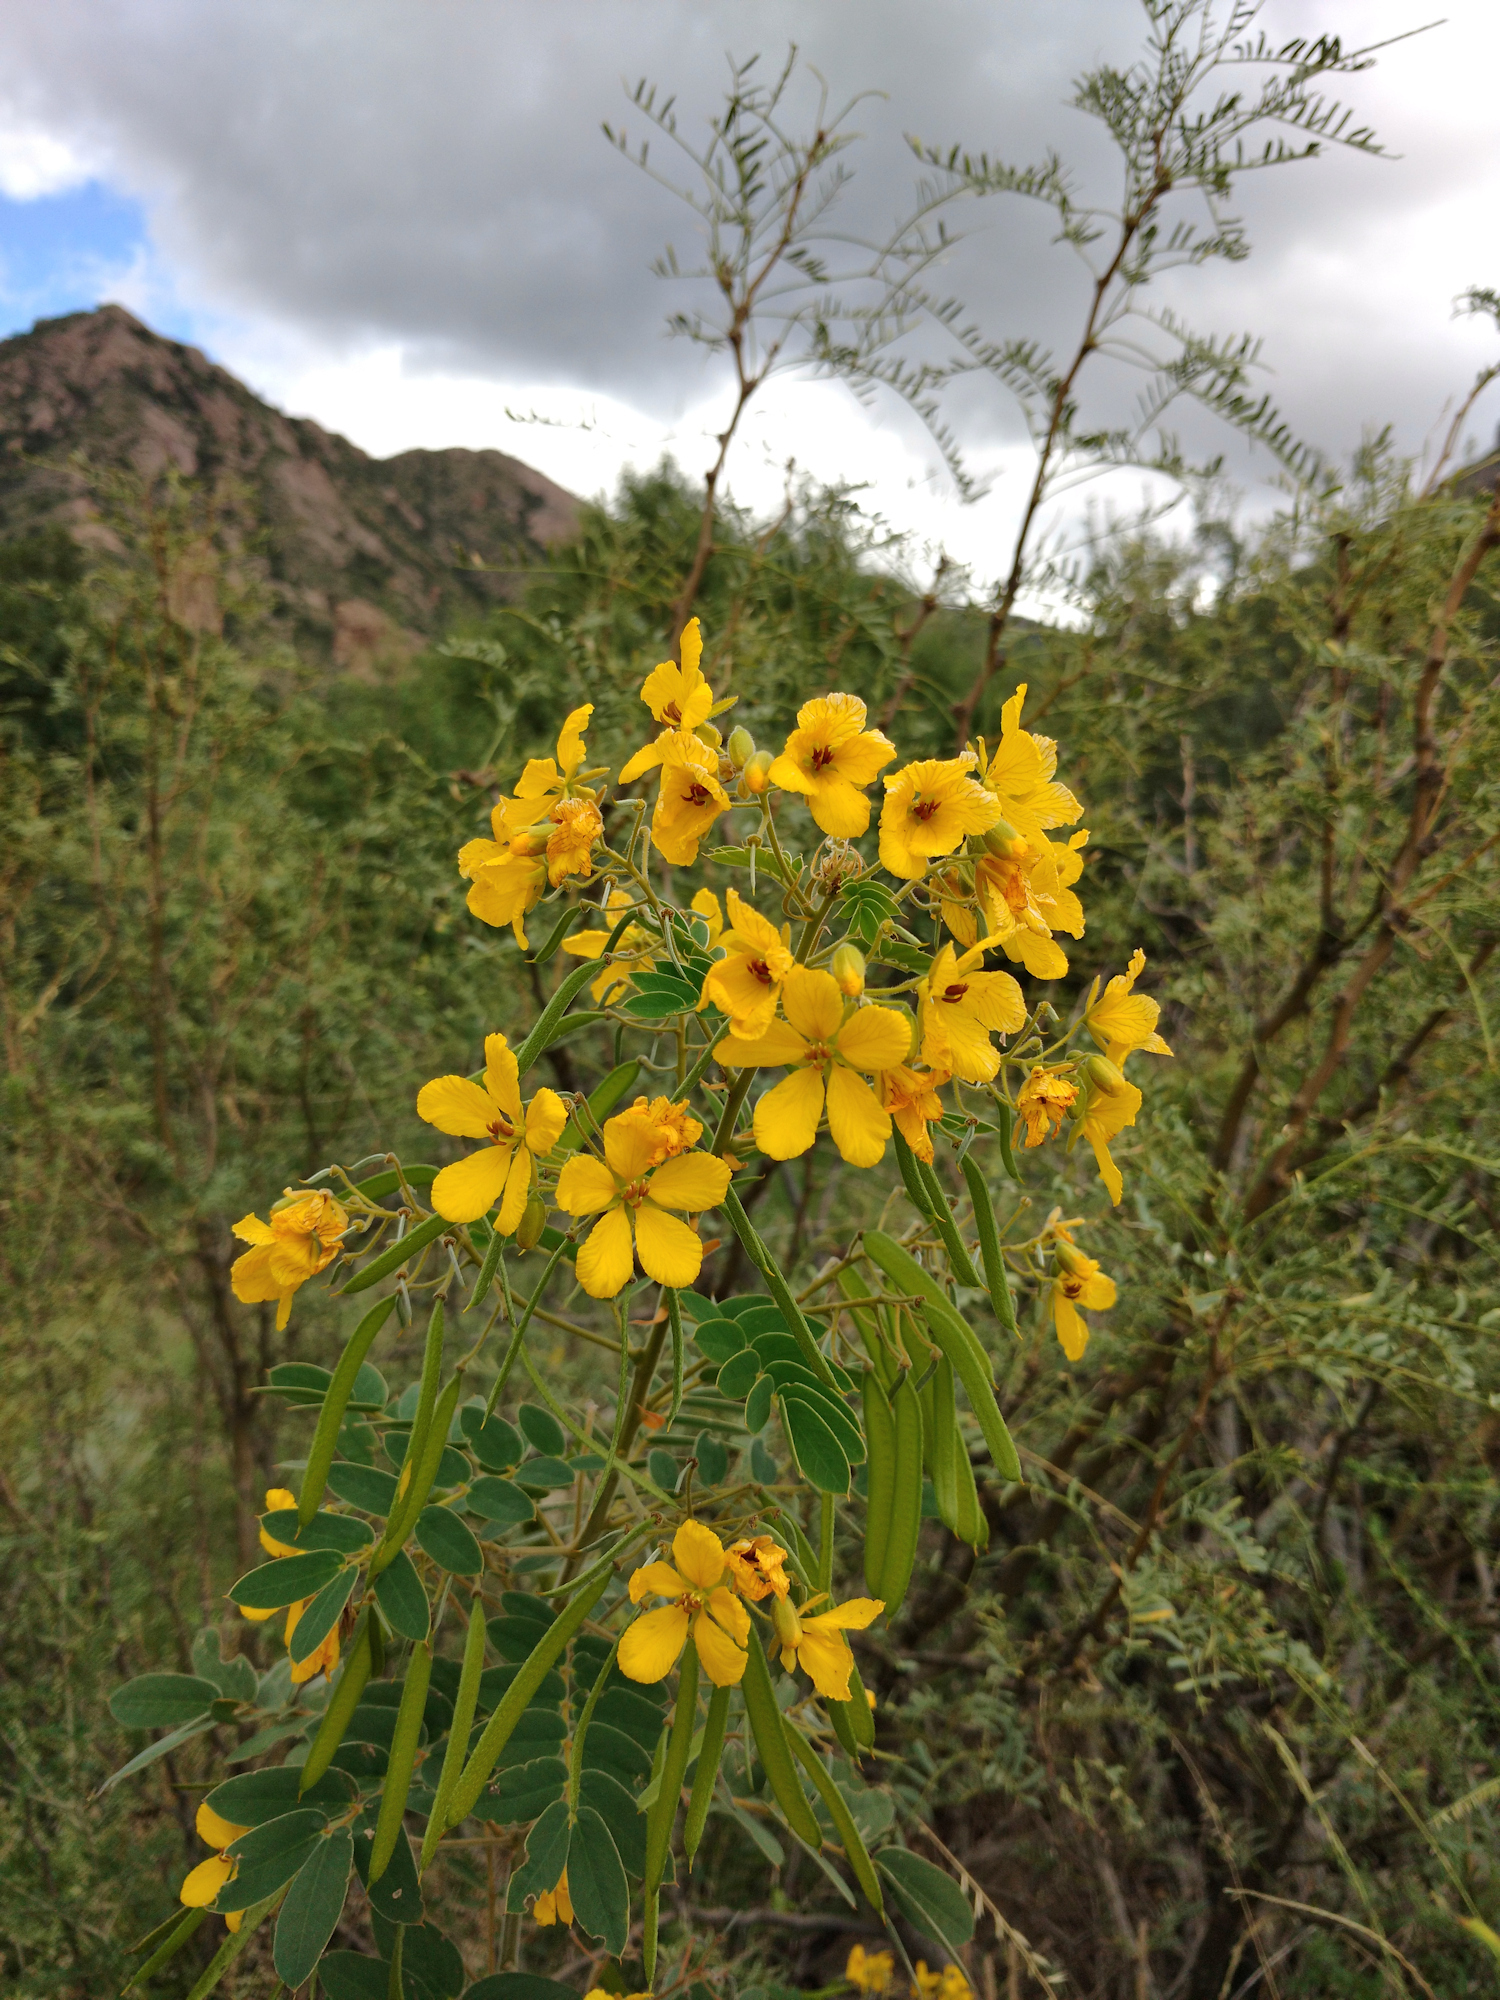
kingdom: Plantae
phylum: Tracheophyta
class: Magnoliopsida
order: Fabales
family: Fabaceae
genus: Senna
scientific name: Senna lindheimeriana
